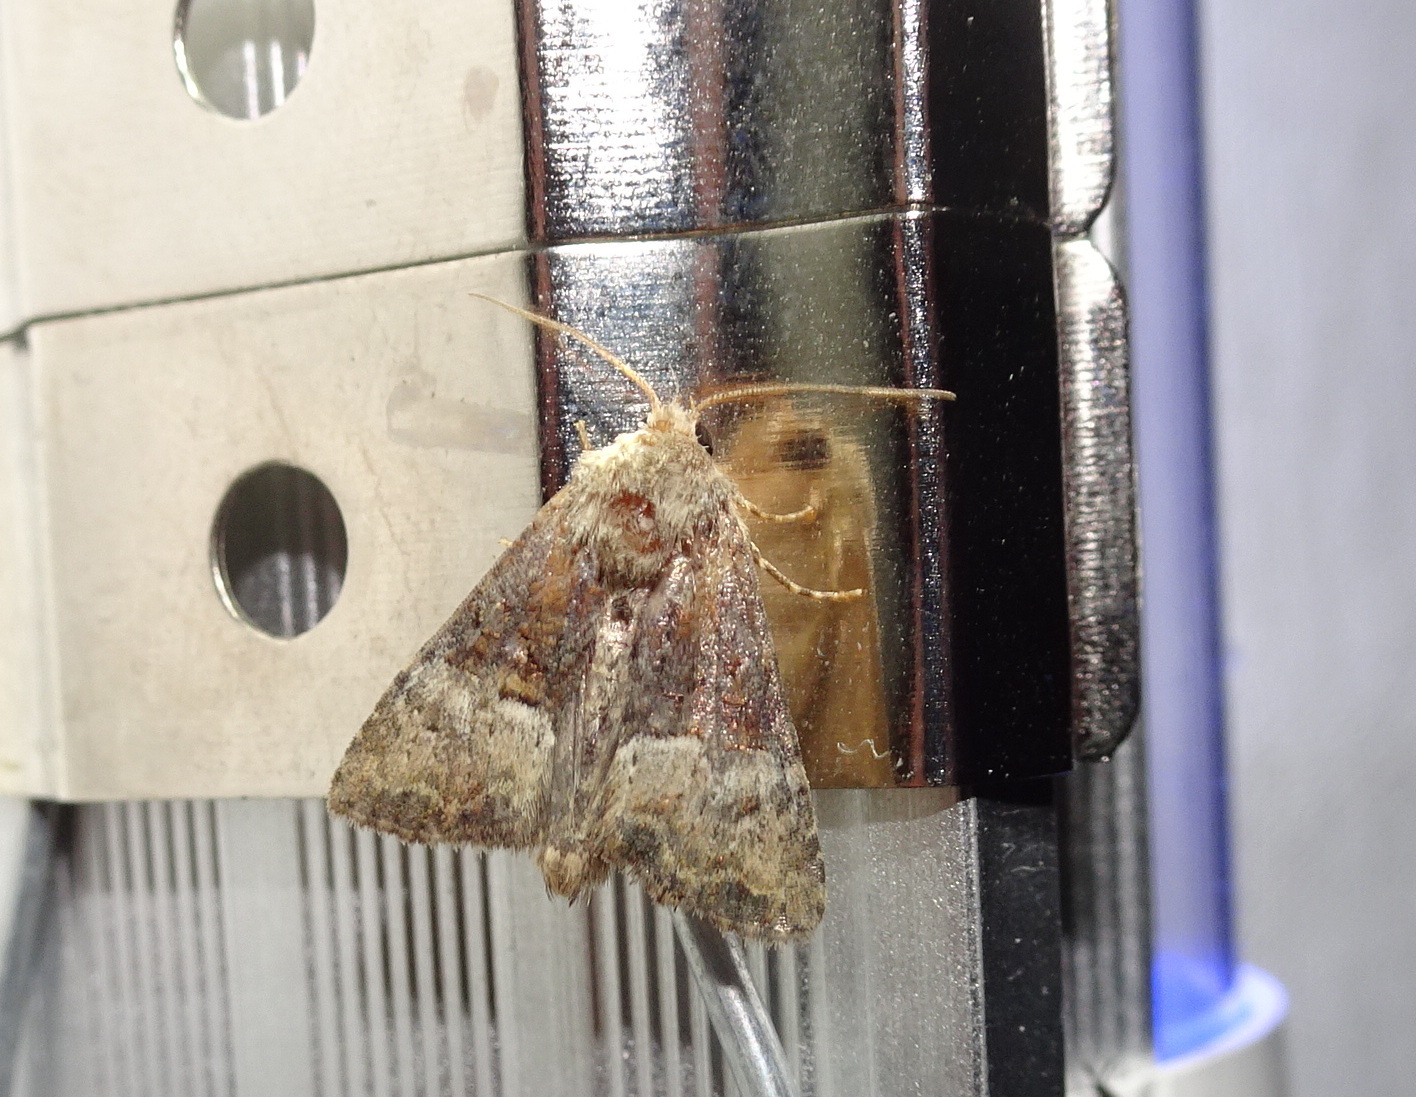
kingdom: Animalia
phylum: Arthropoda
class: Insecta
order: Lepidoptera
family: Noctuidae
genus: Mesoligia
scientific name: Mesoligia furuncula
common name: Cloaked minor
